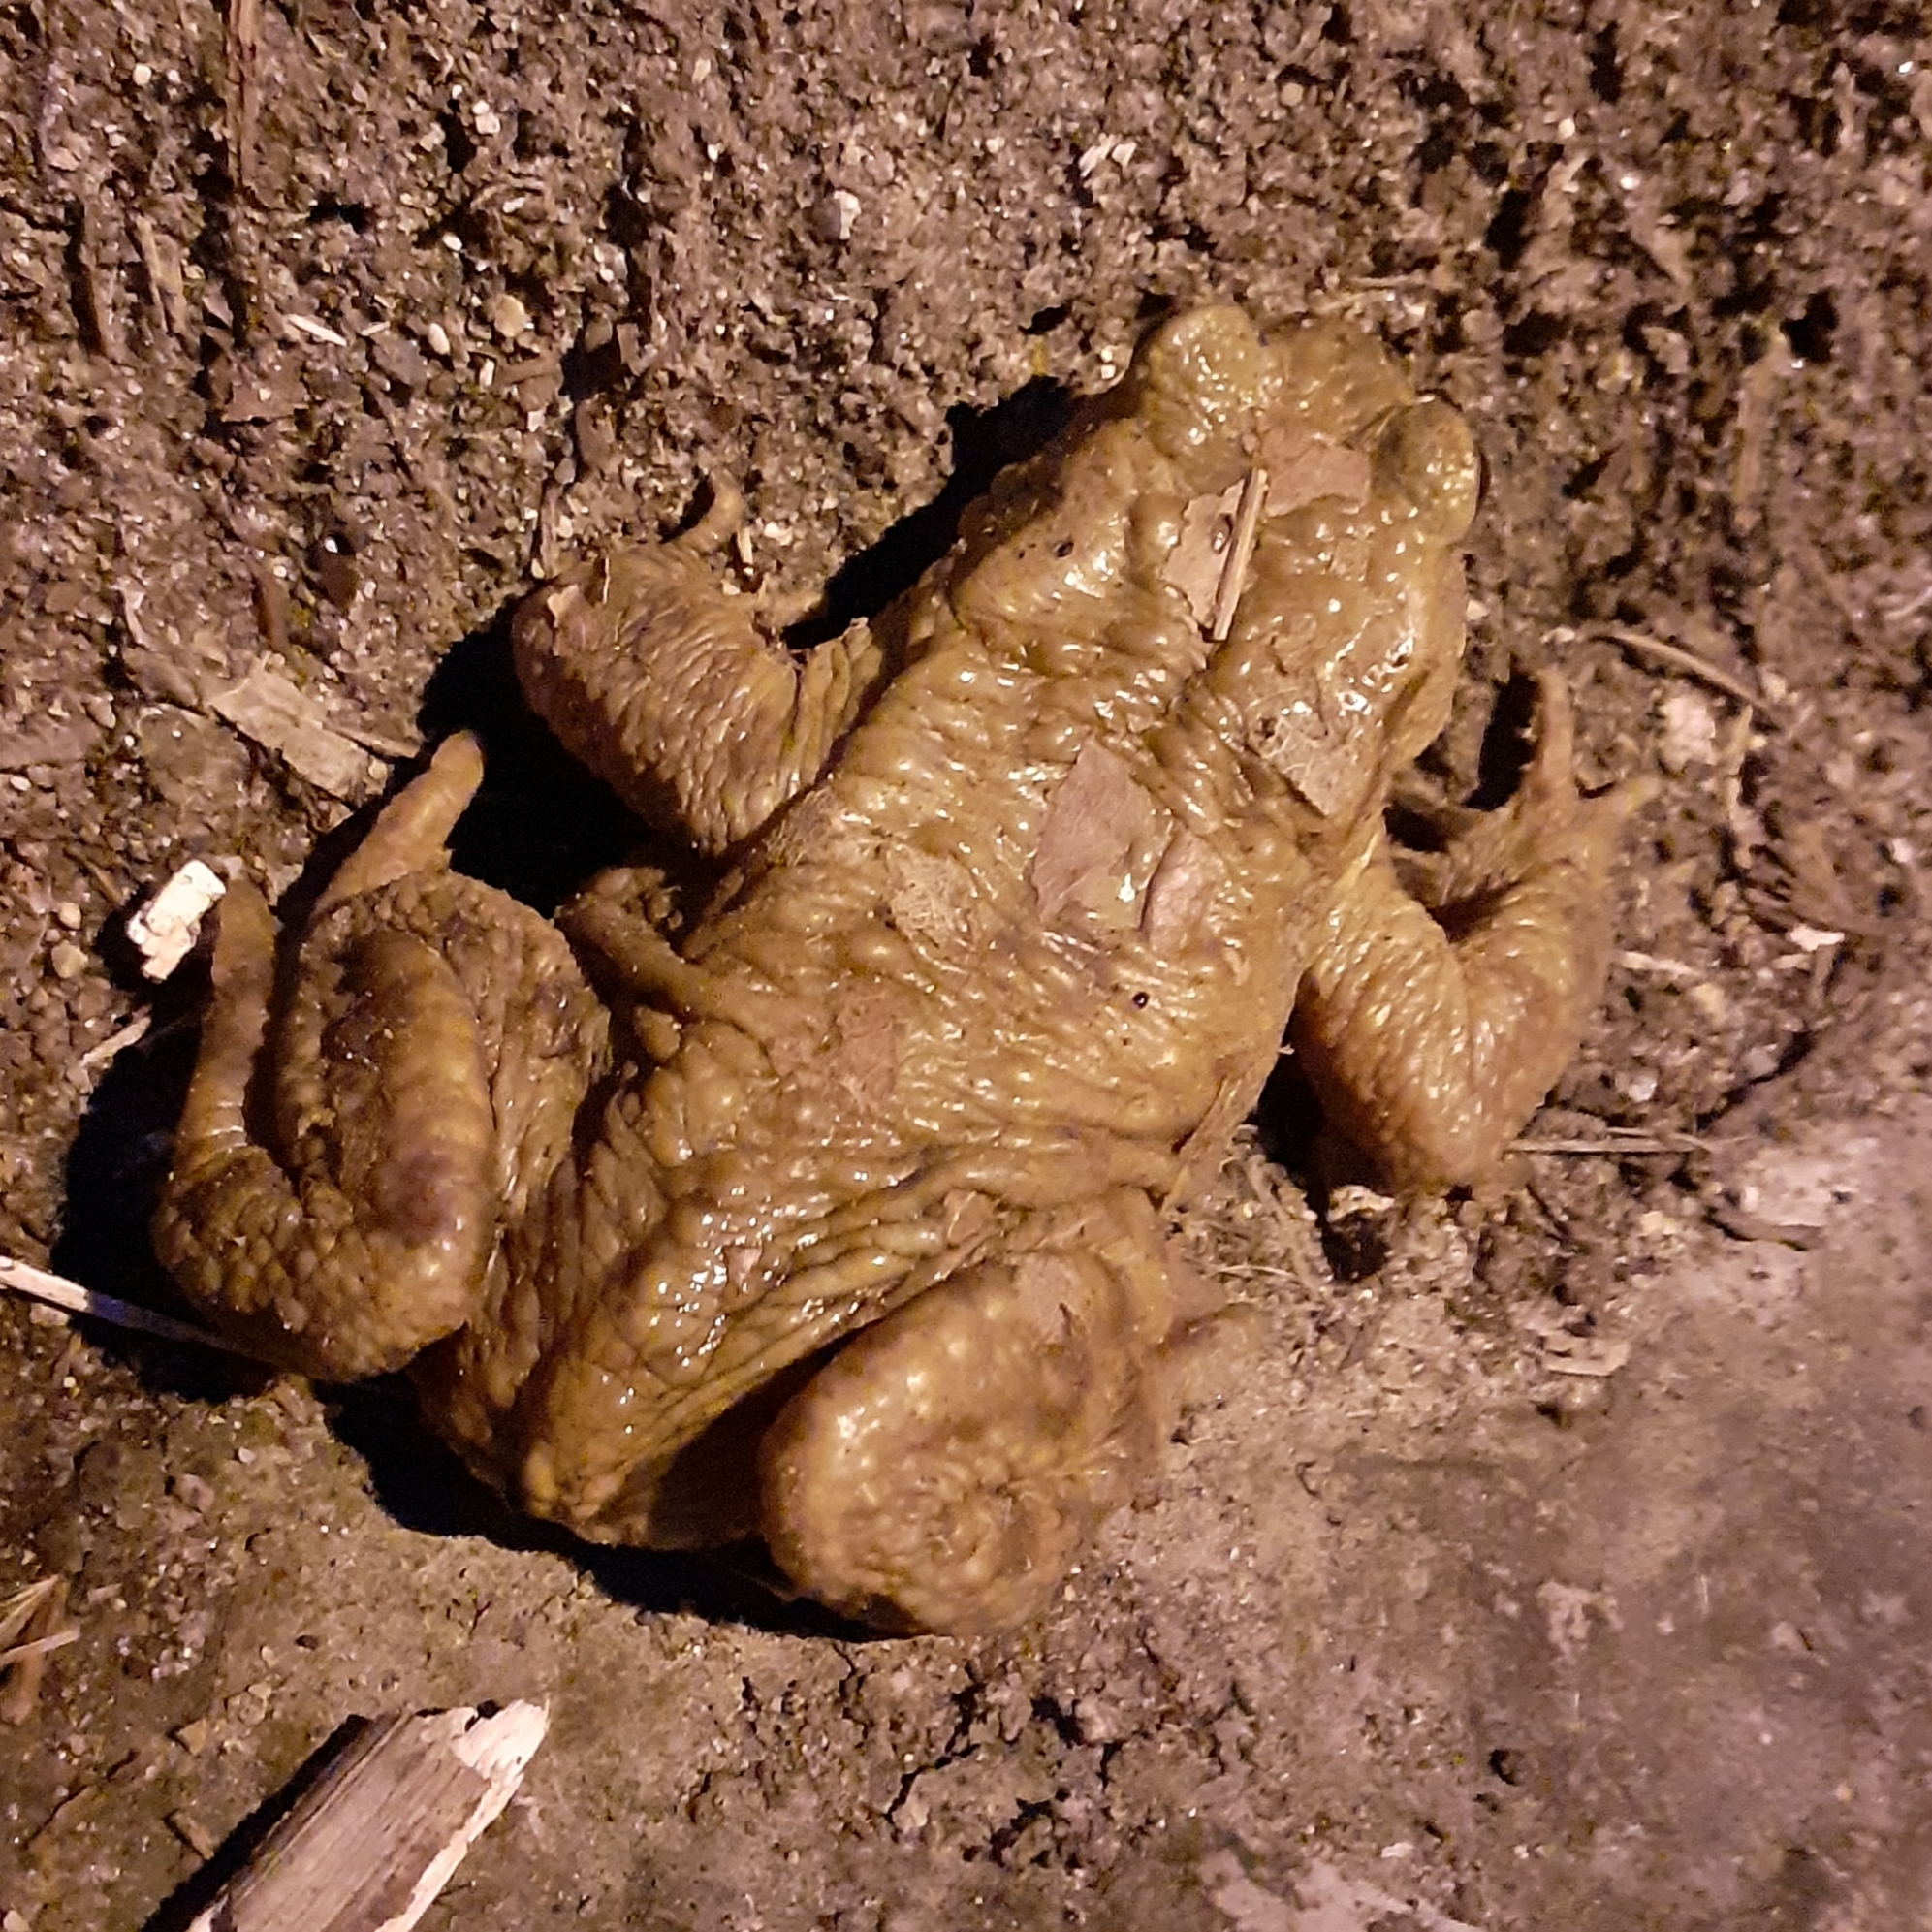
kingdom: Animalia
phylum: Chordata
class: Amphibia
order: Anura
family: Bufonidae
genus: Bufo
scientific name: Bufo bufo
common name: Common toad
